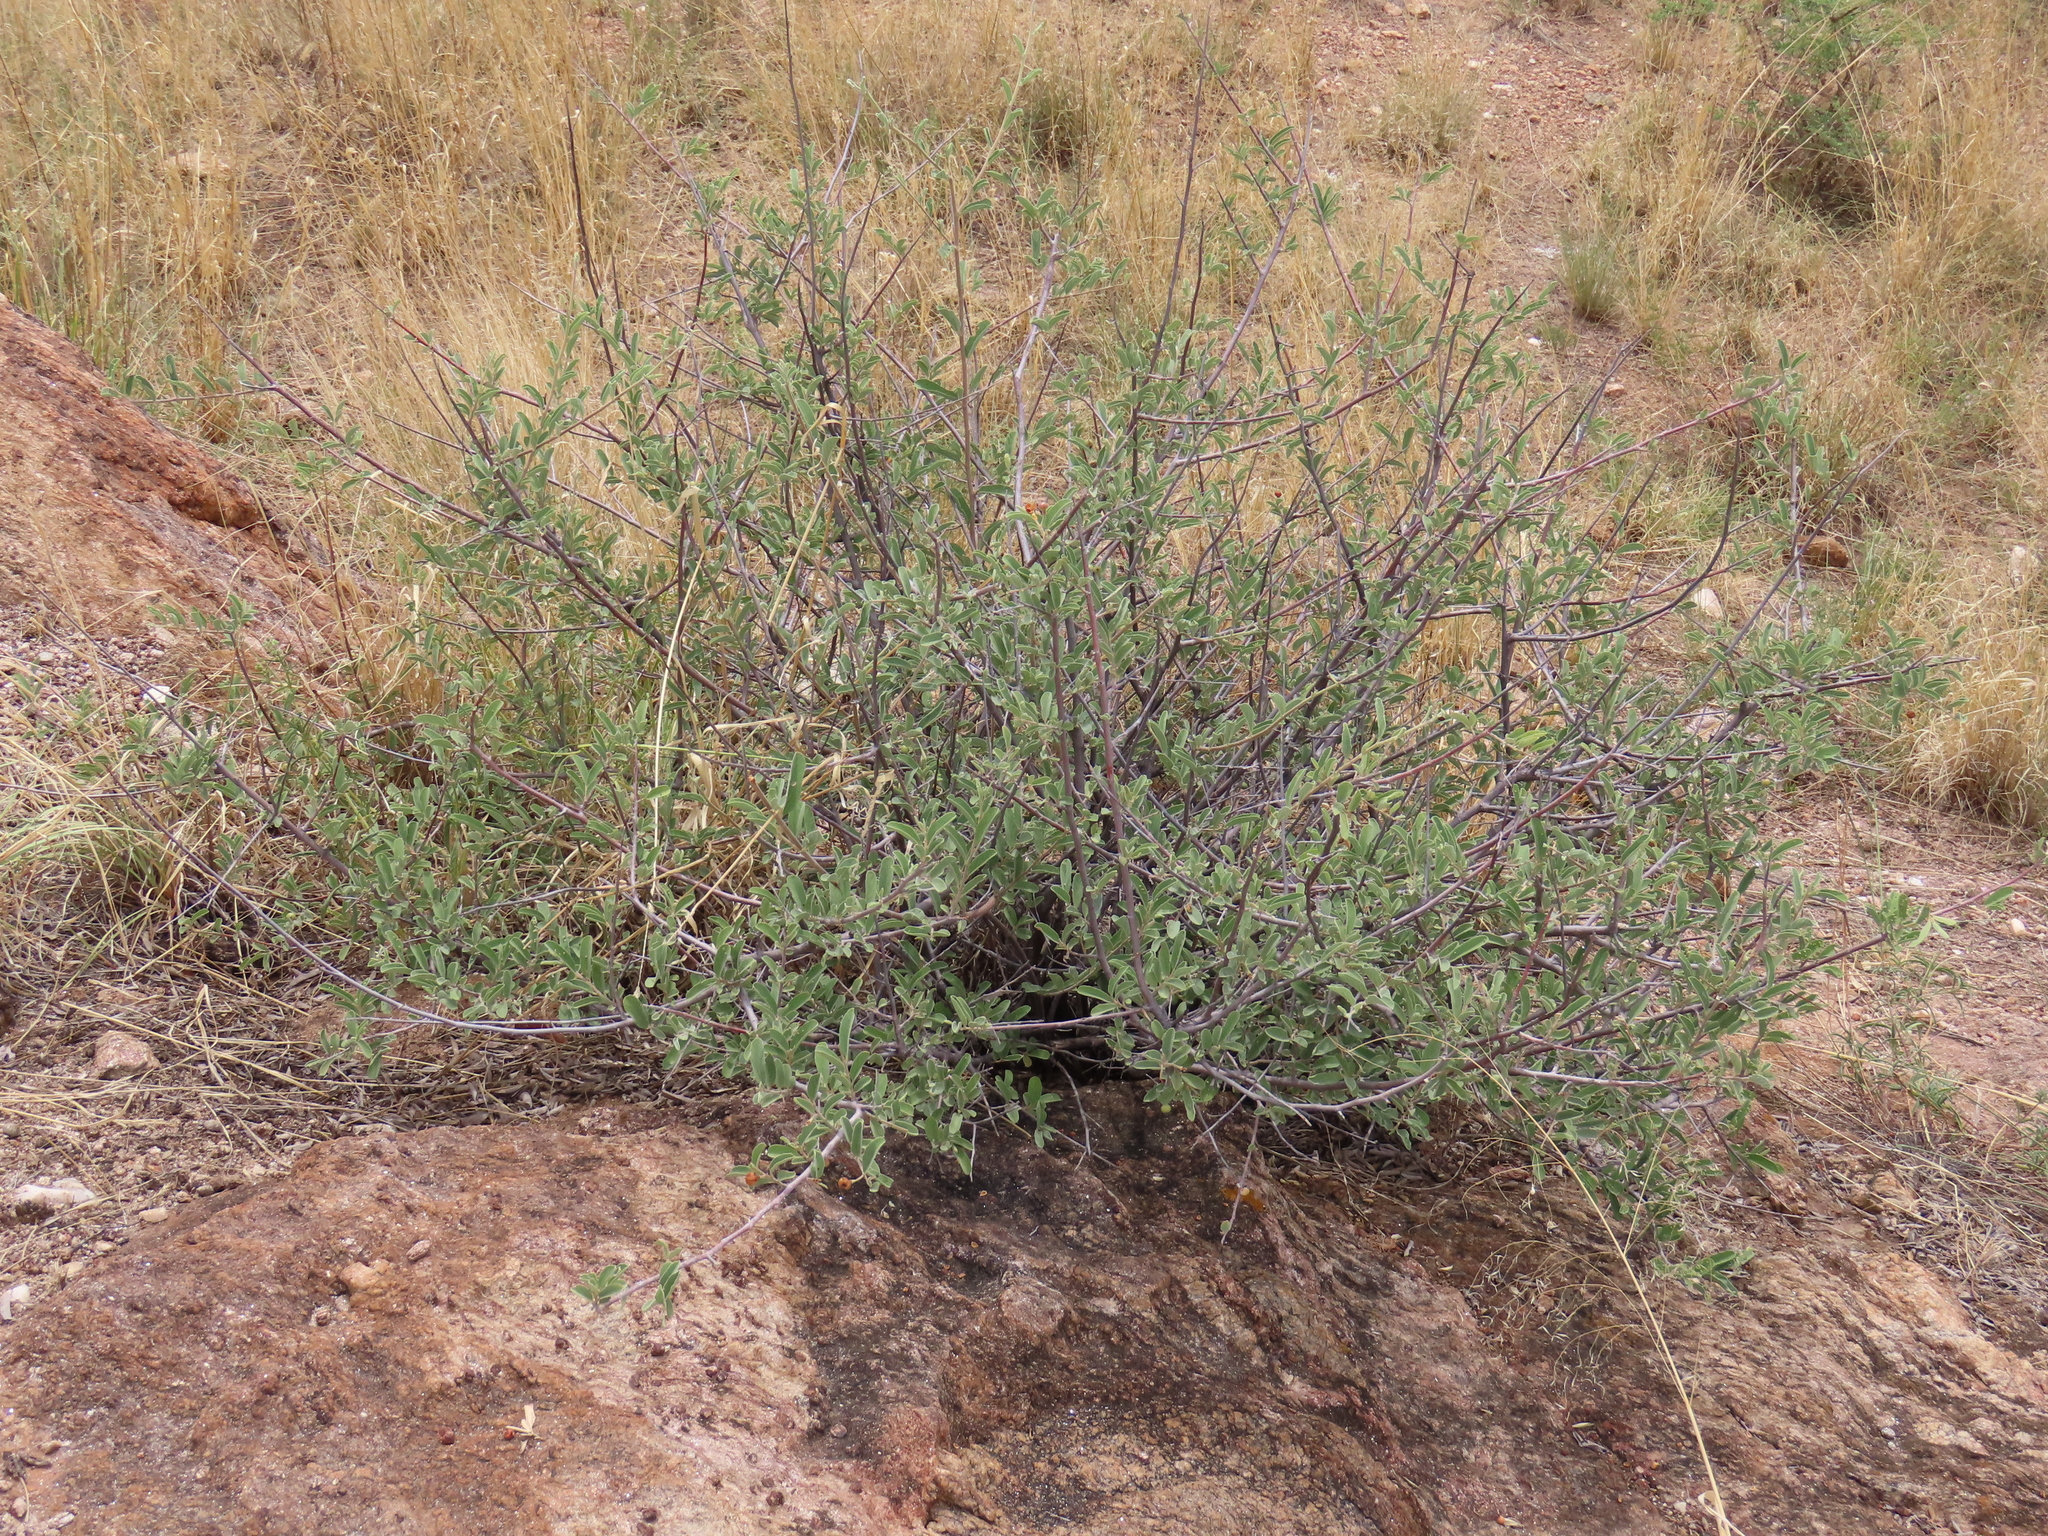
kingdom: Plantae
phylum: Tracheophyta
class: Magnoliopsida
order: Malvales
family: Malvaceae
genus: Grewia
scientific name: Grewia flava
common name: Brandy bush
